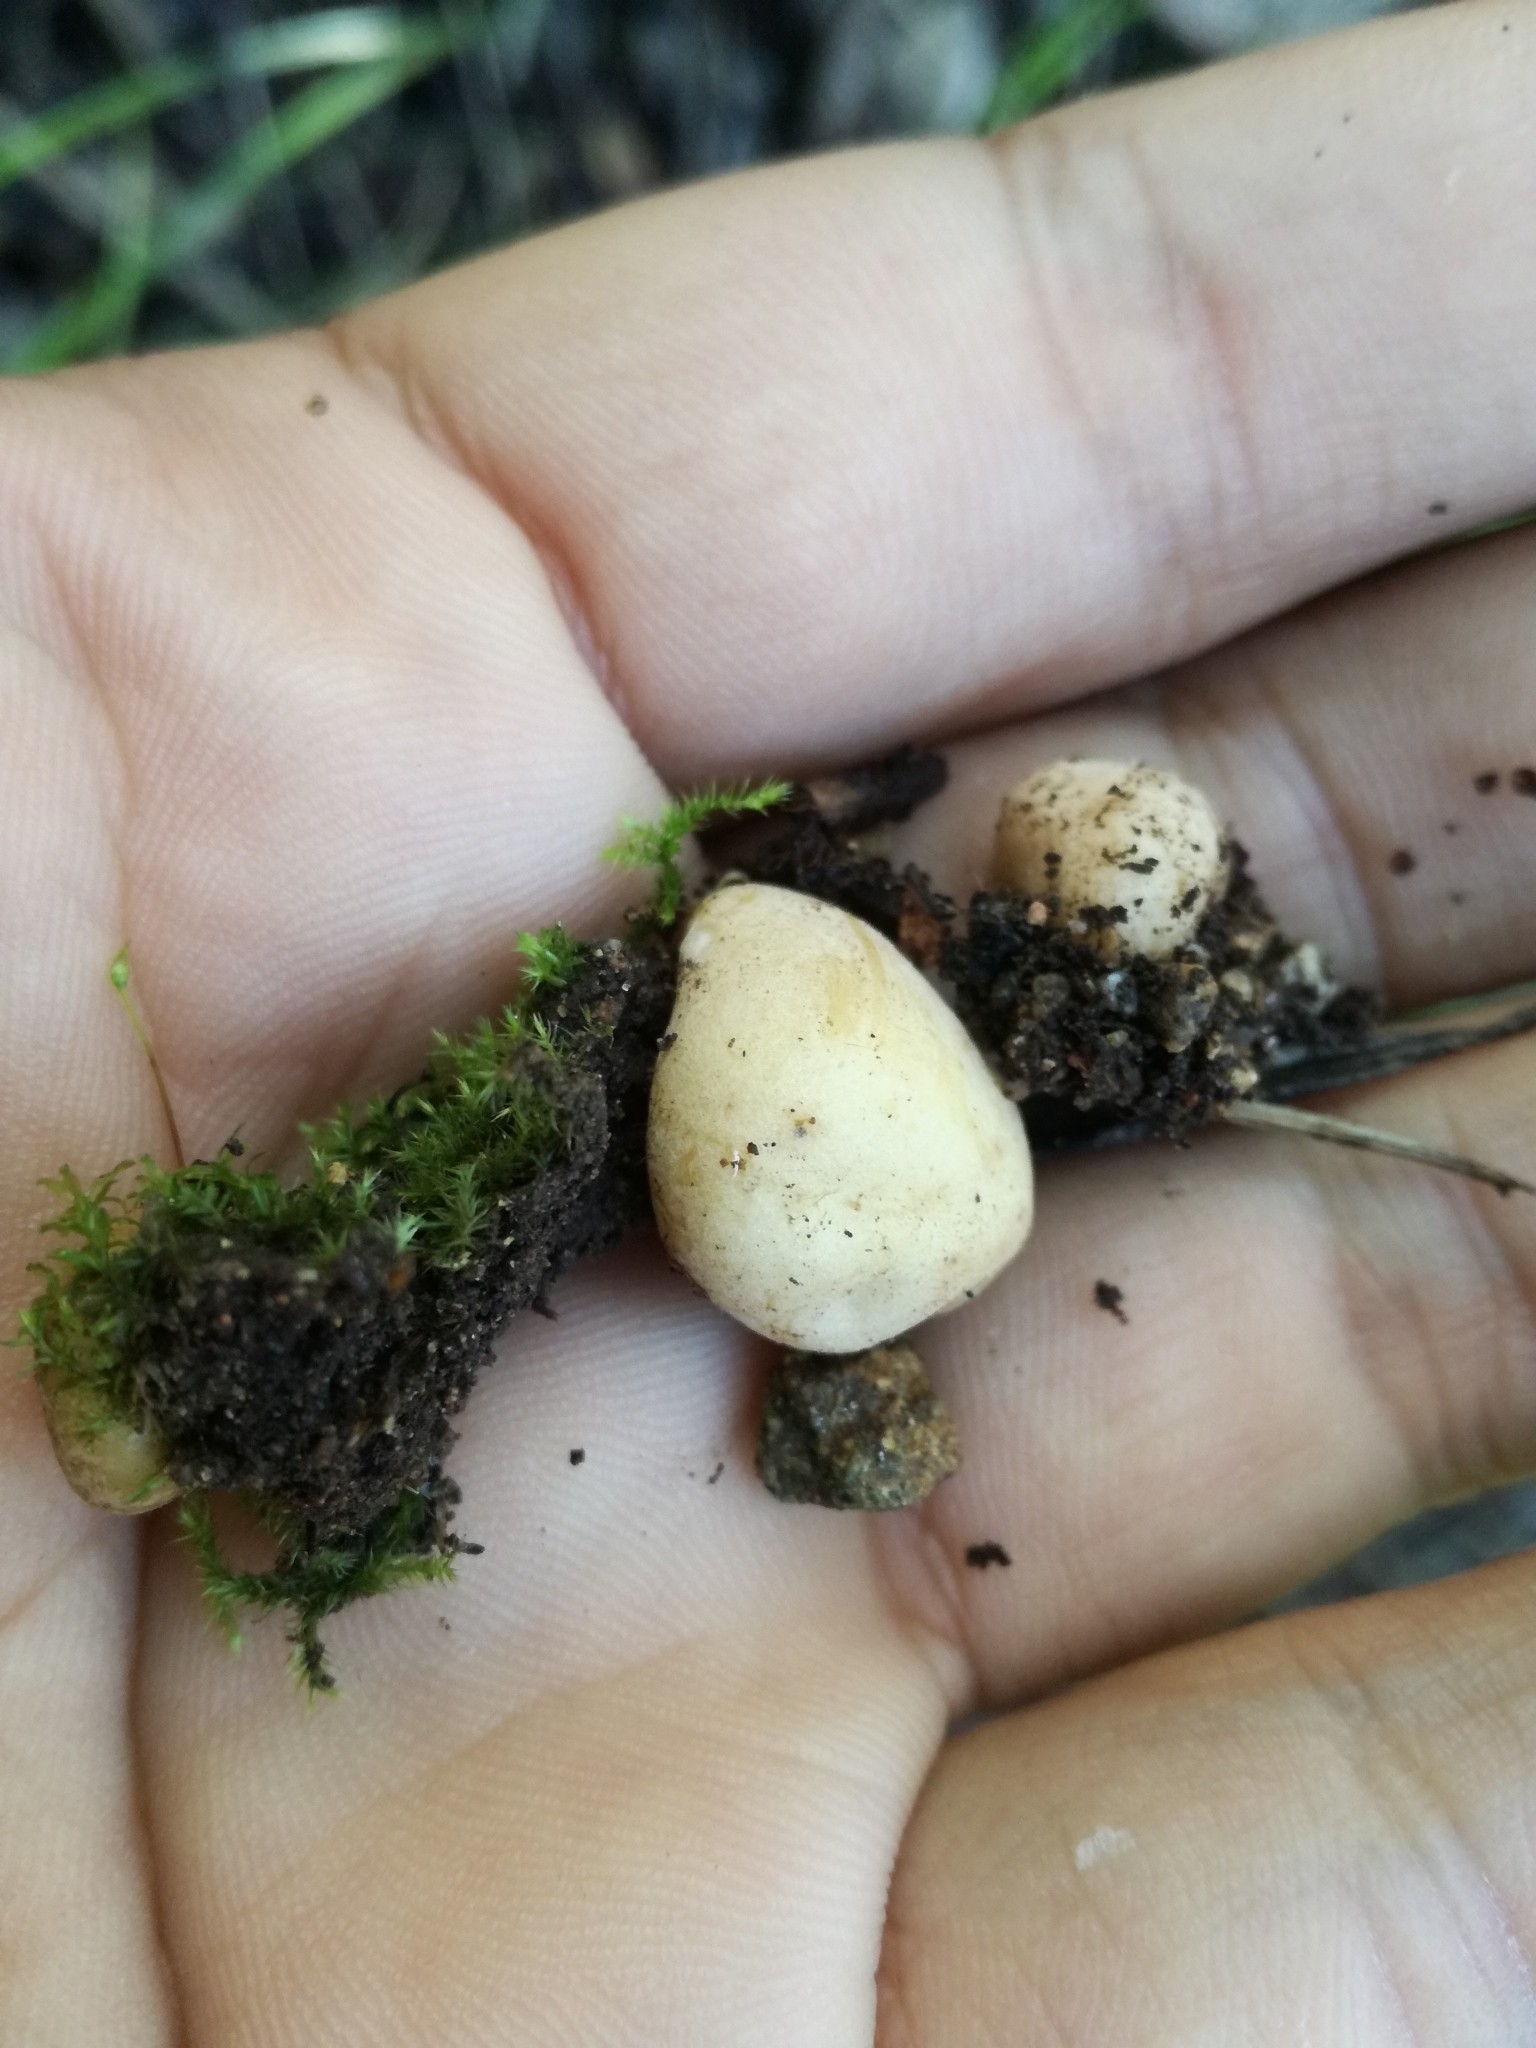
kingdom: Fungi
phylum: Ascomycota
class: Pezizomycetes
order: Pezizales
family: Pyronemataceae
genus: Hydnocystis
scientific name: Hydnocystis piligera
